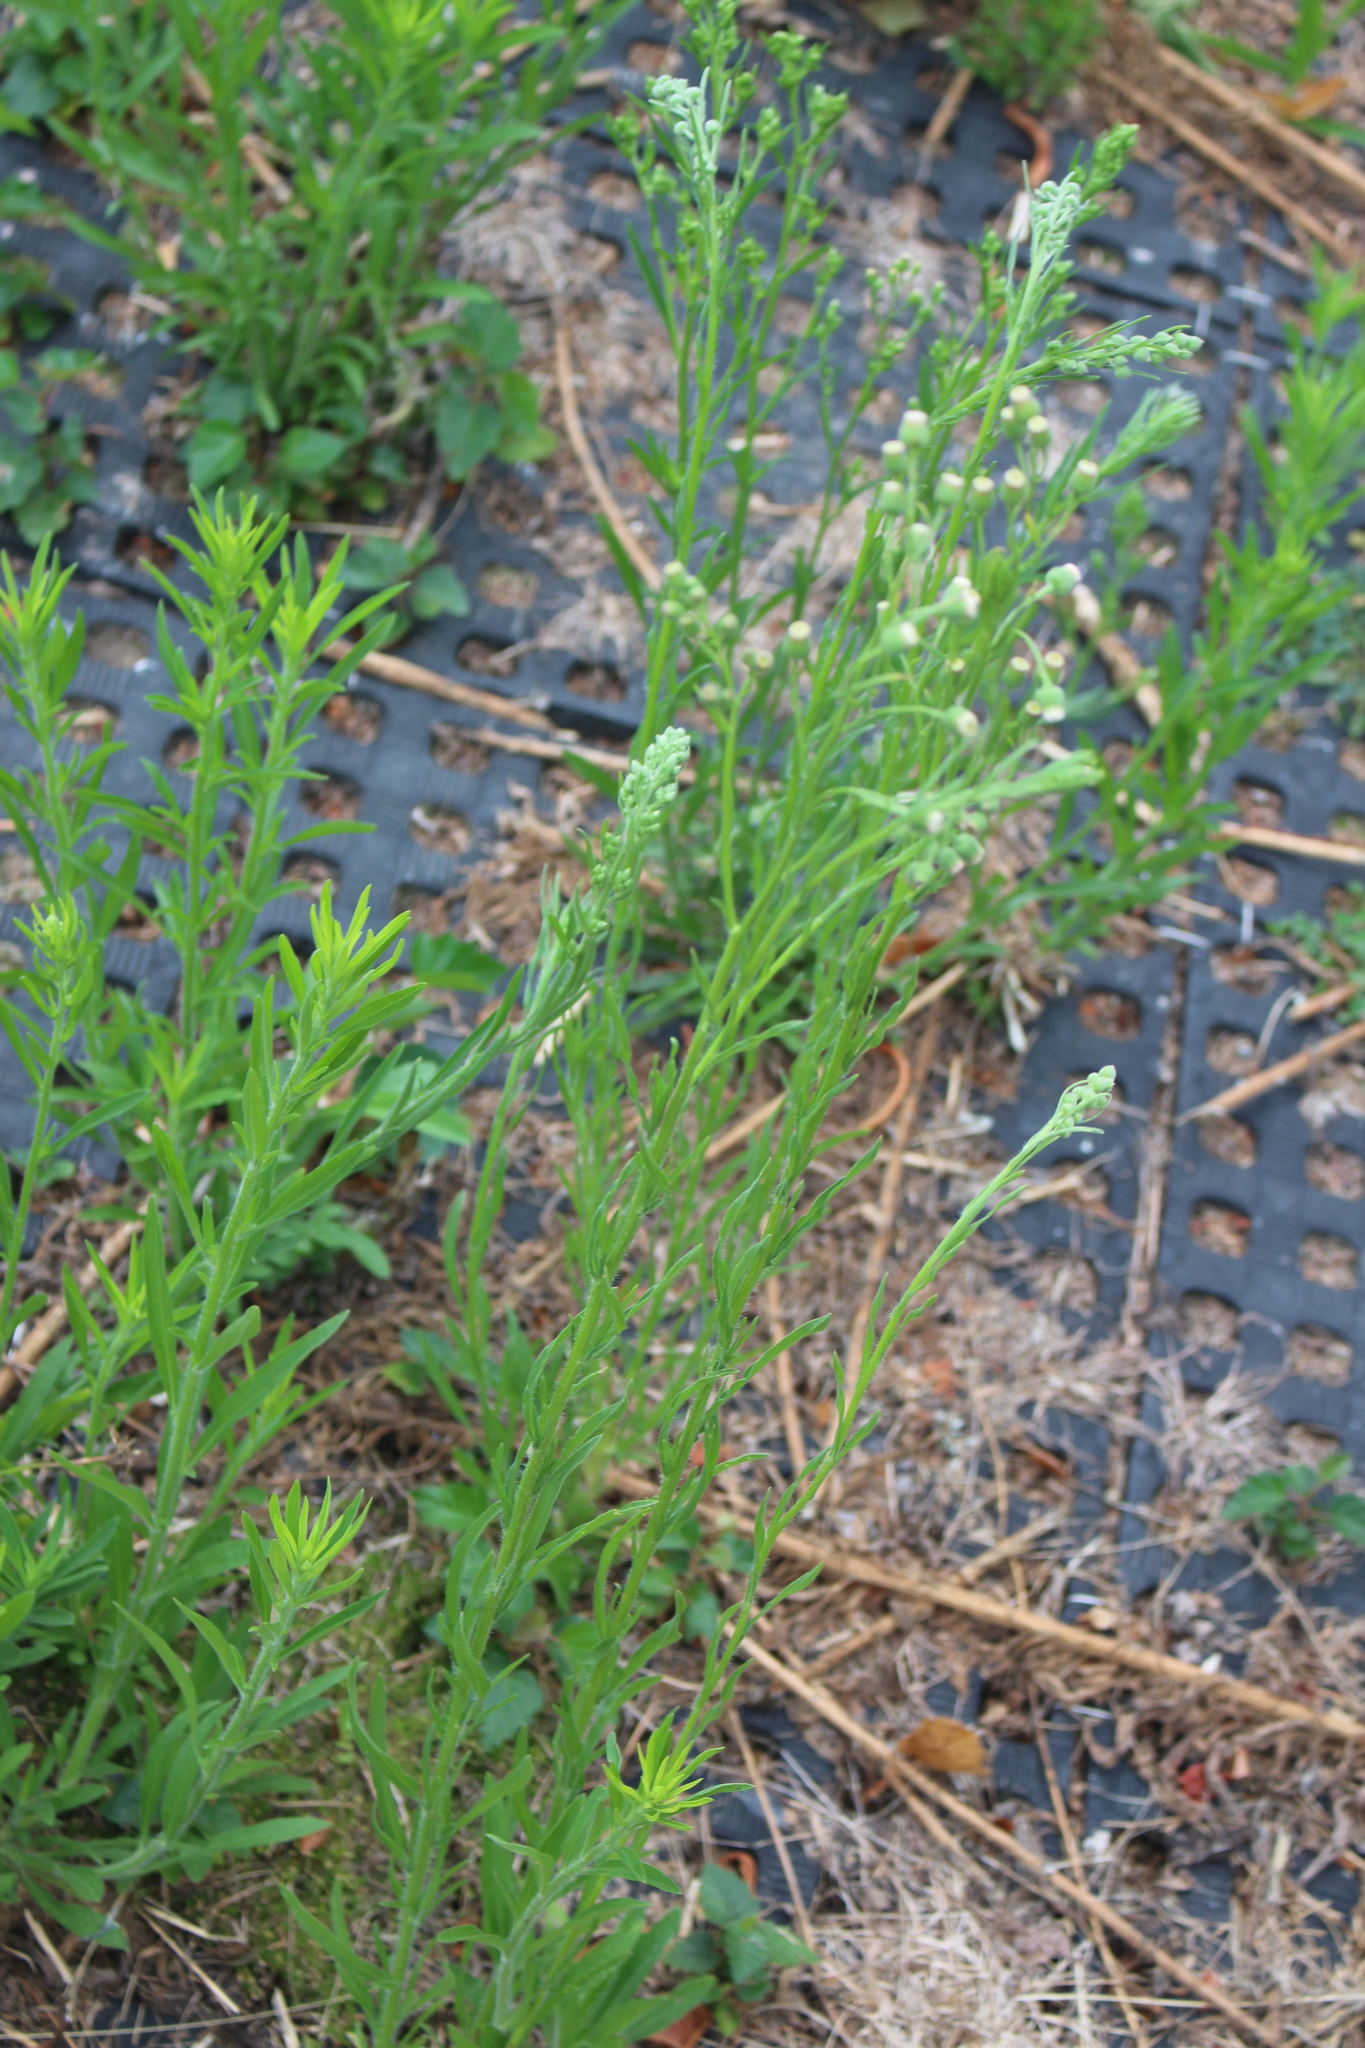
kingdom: Plantae
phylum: Tracheophyta
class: Magnoliopsida
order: Asterales
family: Asteraceae
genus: Erigeron
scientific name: Erigeron bonariensis
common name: Argentine fleabane
